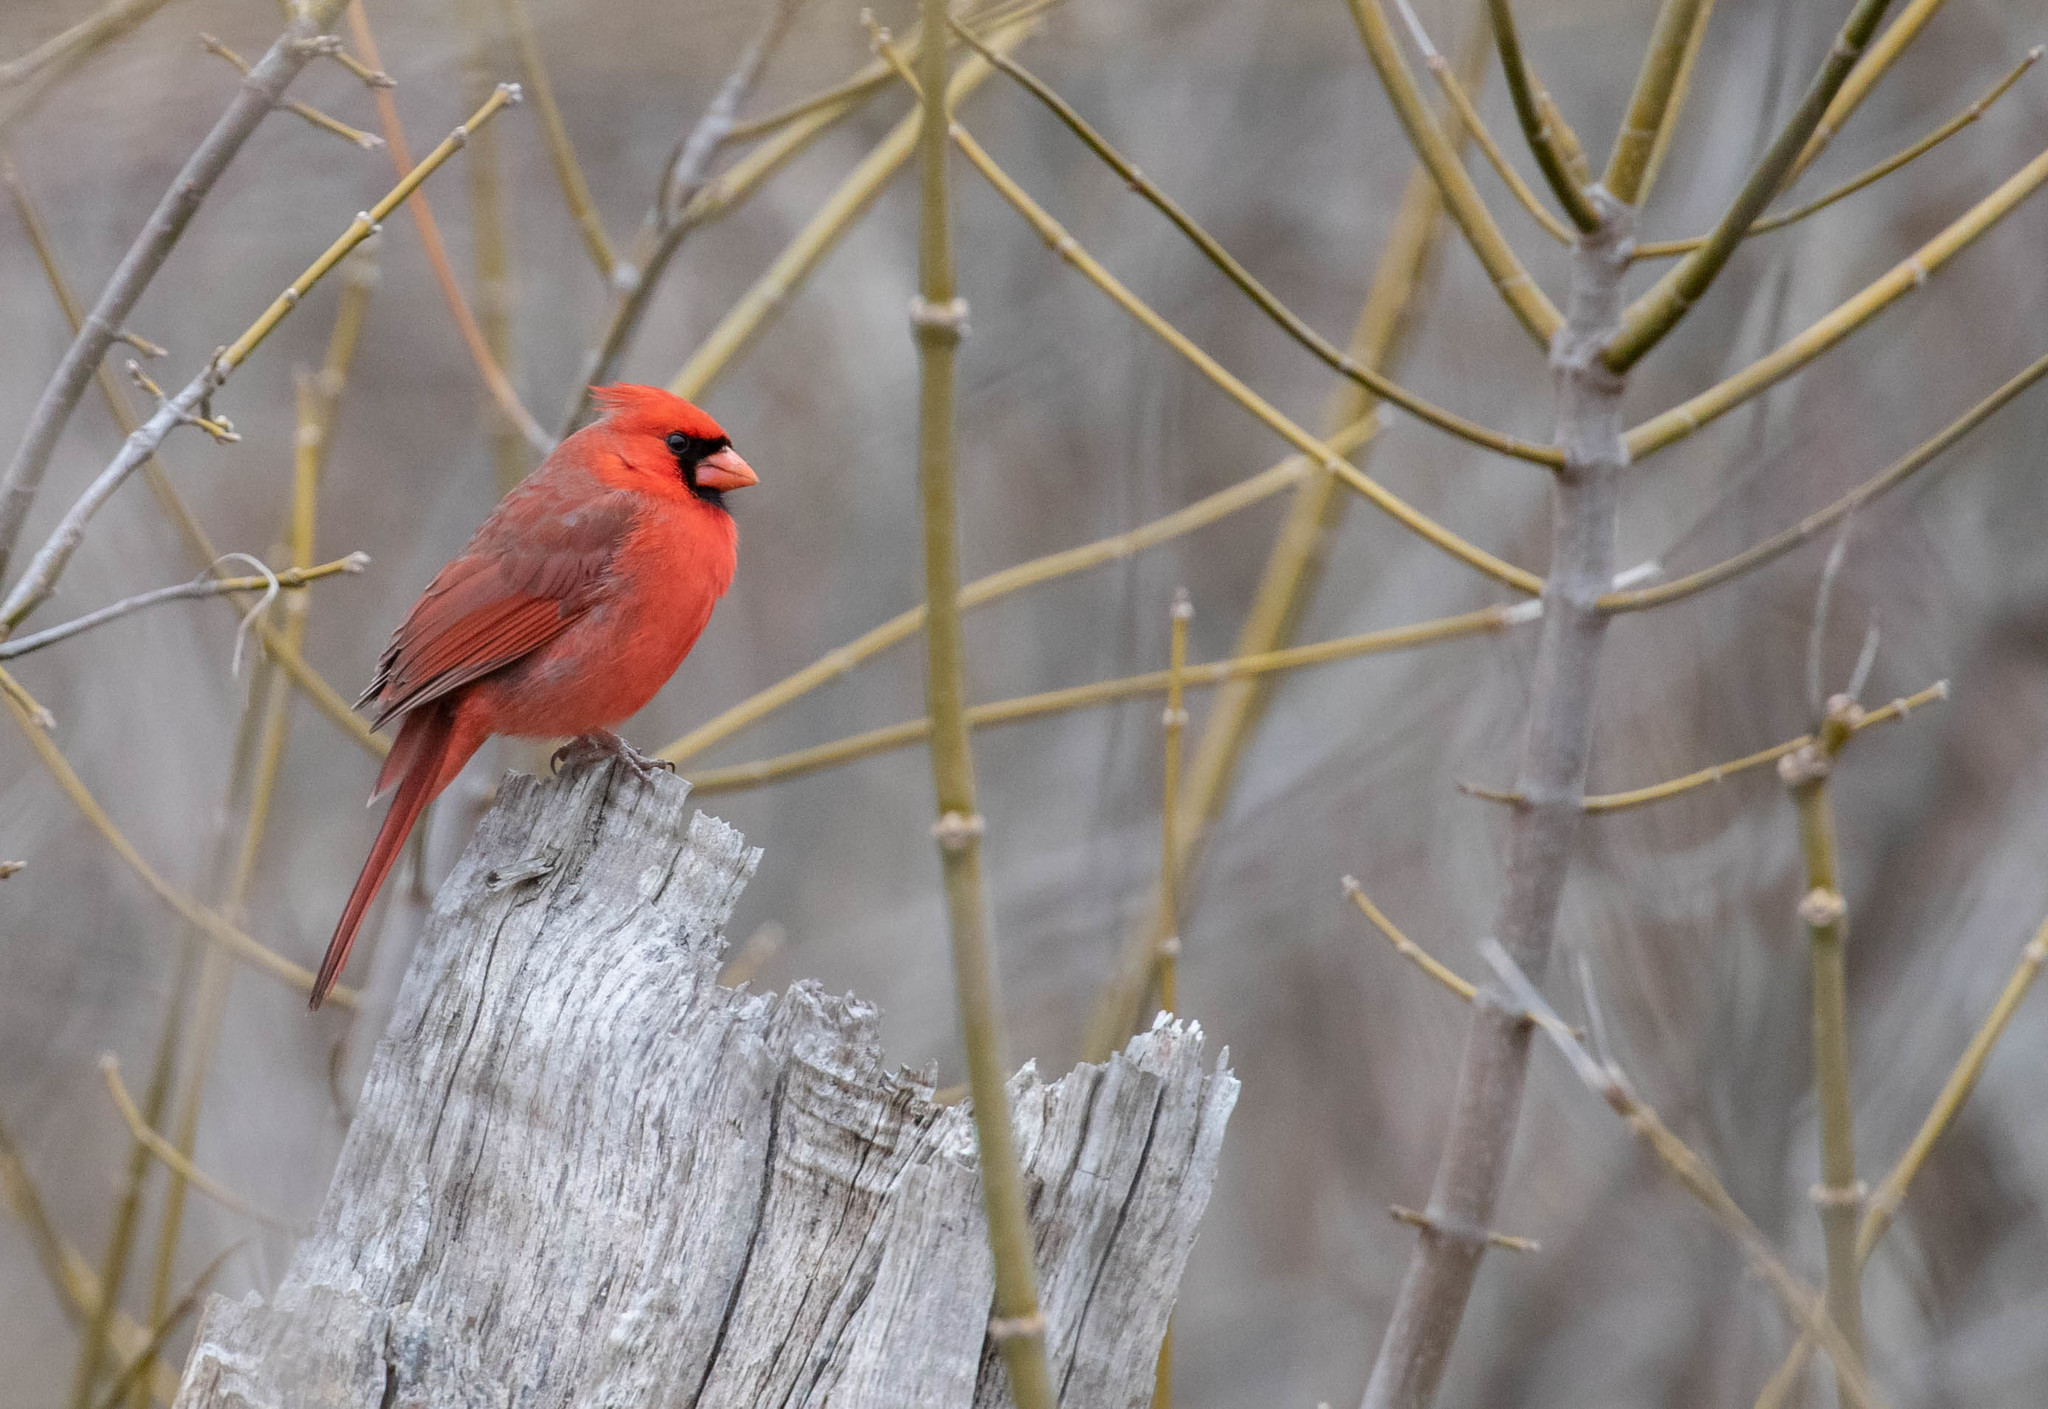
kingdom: Animalia
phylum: Chordata
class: Aves
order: Passeriformes
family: Cardinalidae
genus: Cardinalis
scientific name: Cardinalis cardinalis
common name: Northern cardinal
